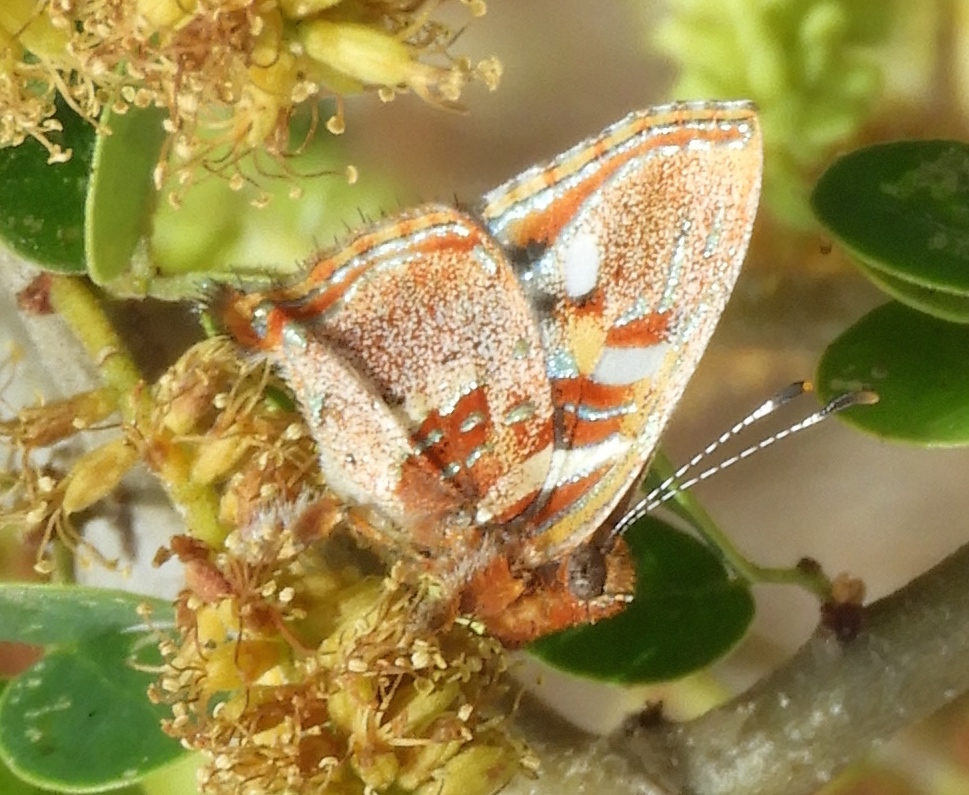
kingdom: Animalia
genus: Anteros
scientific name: Anteros carausius
